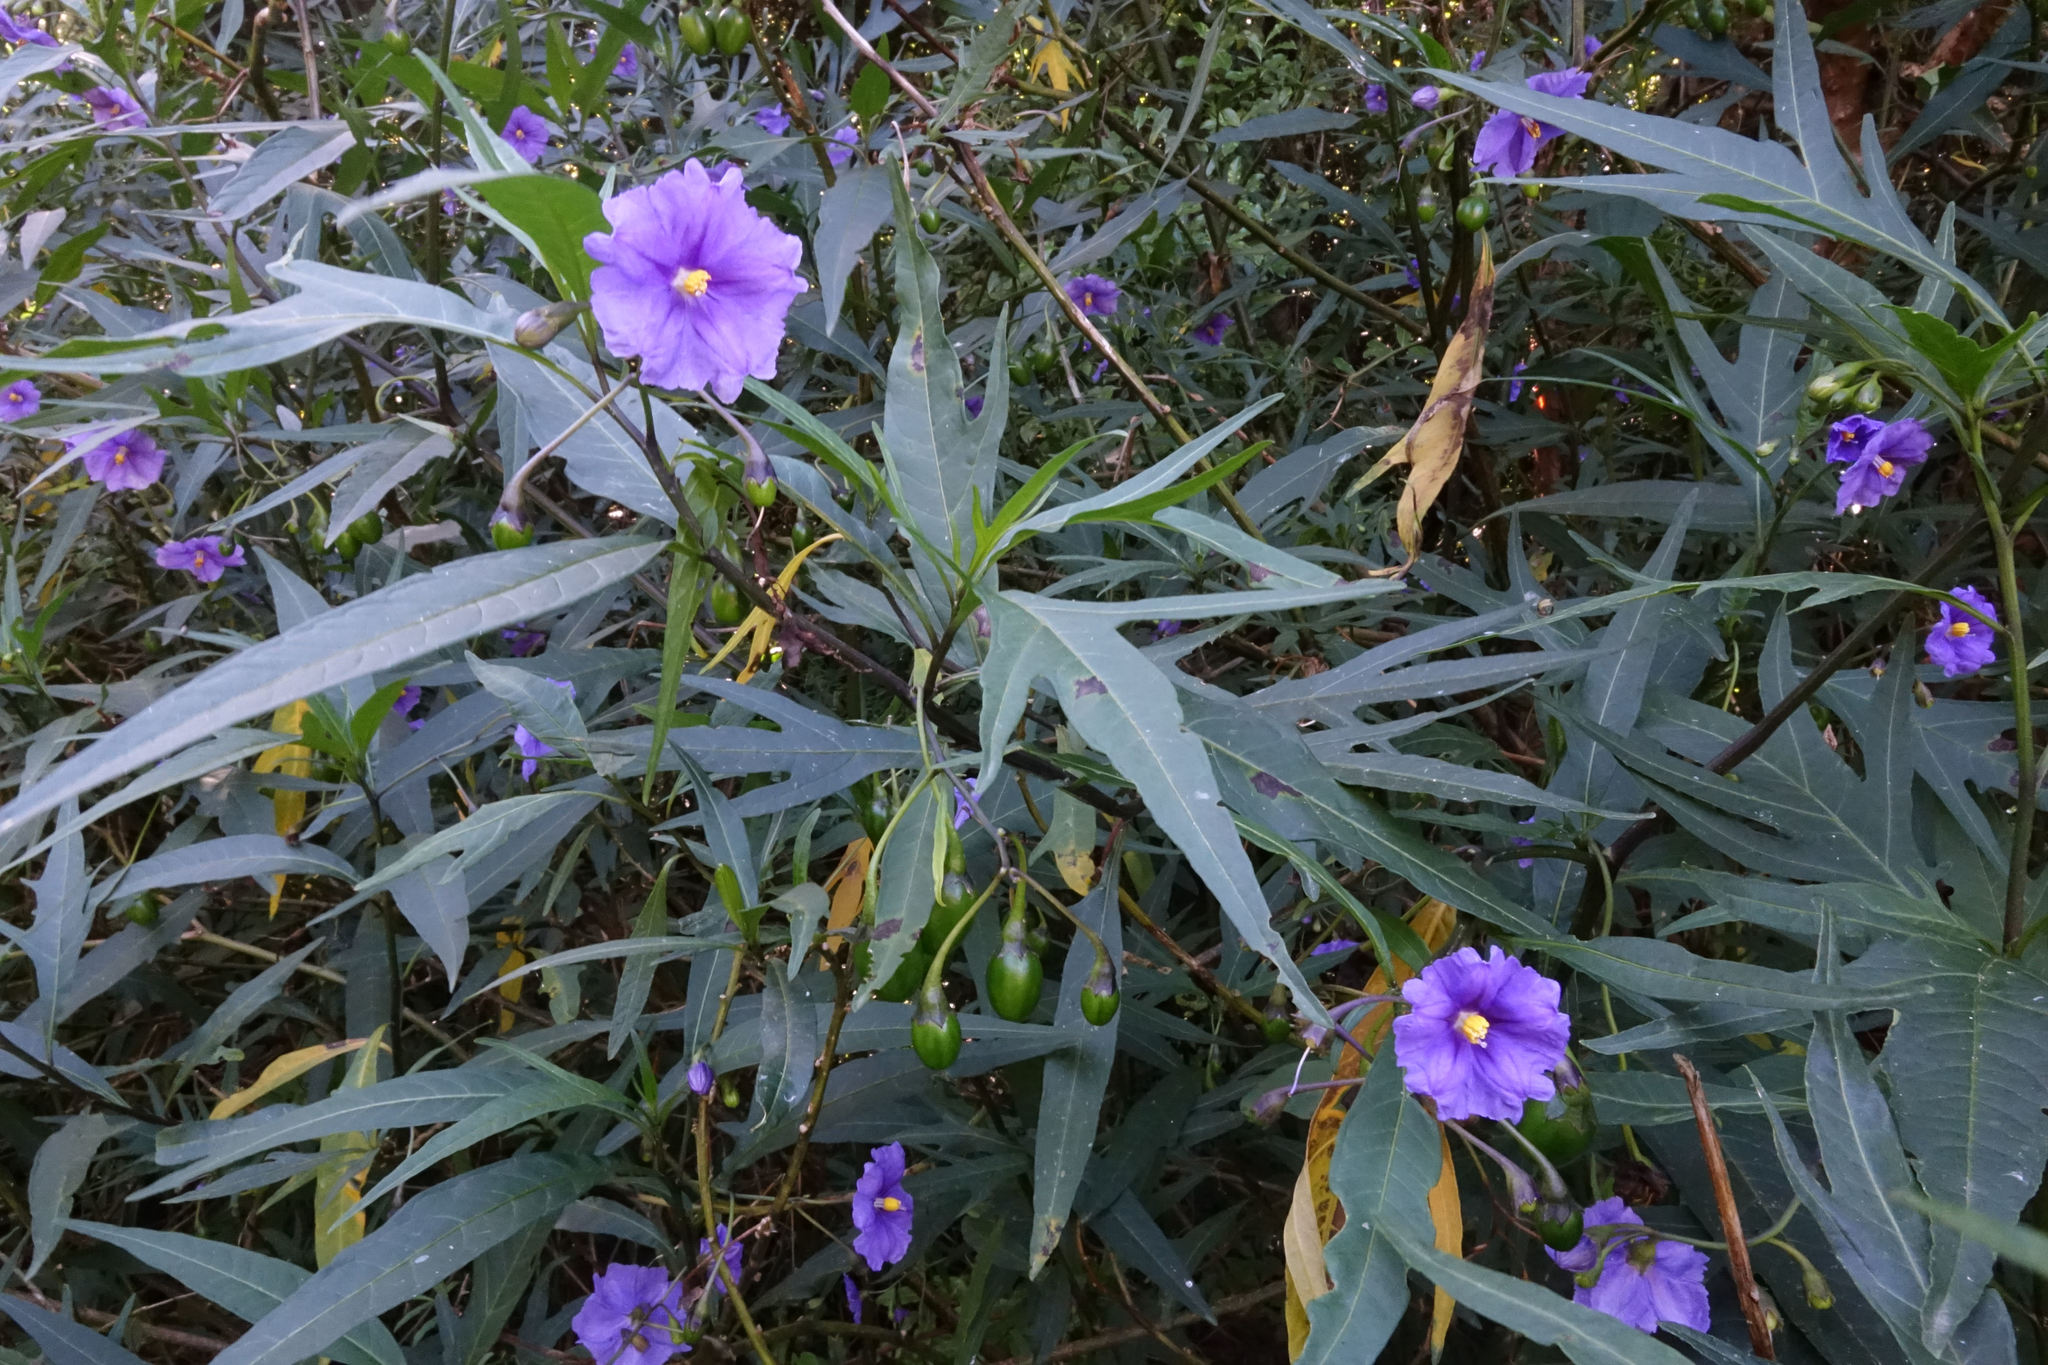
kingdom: Plantae
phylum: Tracheophyta
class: Magnoliopsida
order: Solanales
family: Solanaceae
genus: Solanum
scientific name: Solanum laciniatum
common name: Kangaroo-apple
